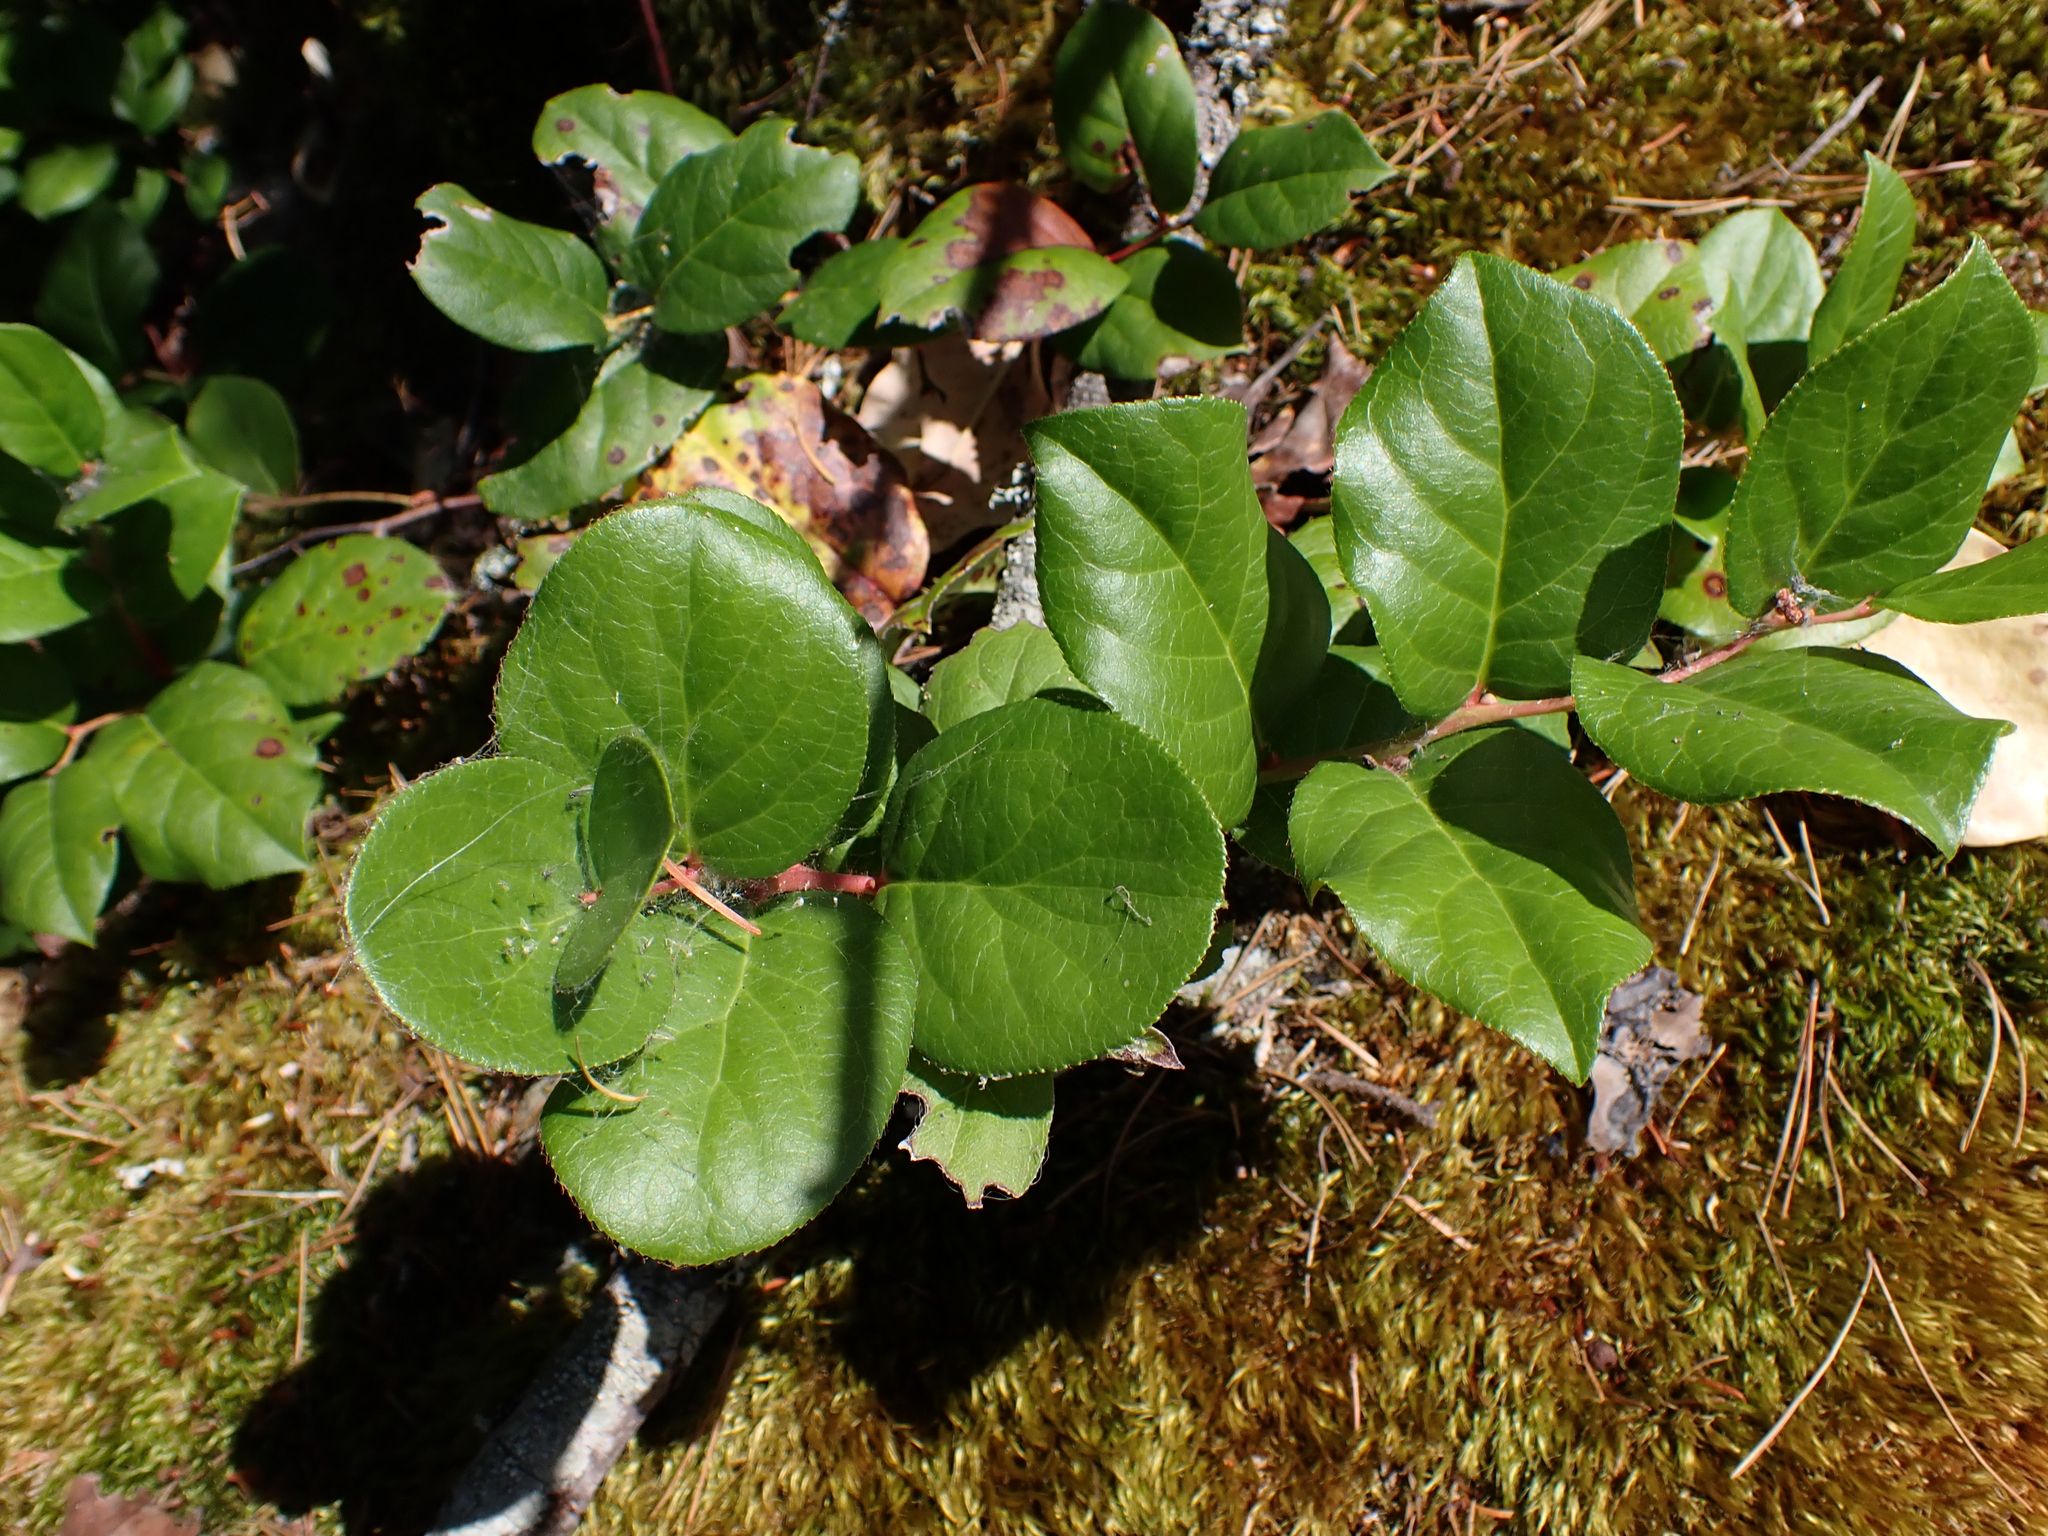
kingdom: Plantae
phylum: Tracheophyta
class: Magnoliopsida
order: Ericales
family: Ericaceae
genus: Gaultheria
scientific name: Gaultheria shallon
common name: Shallon
